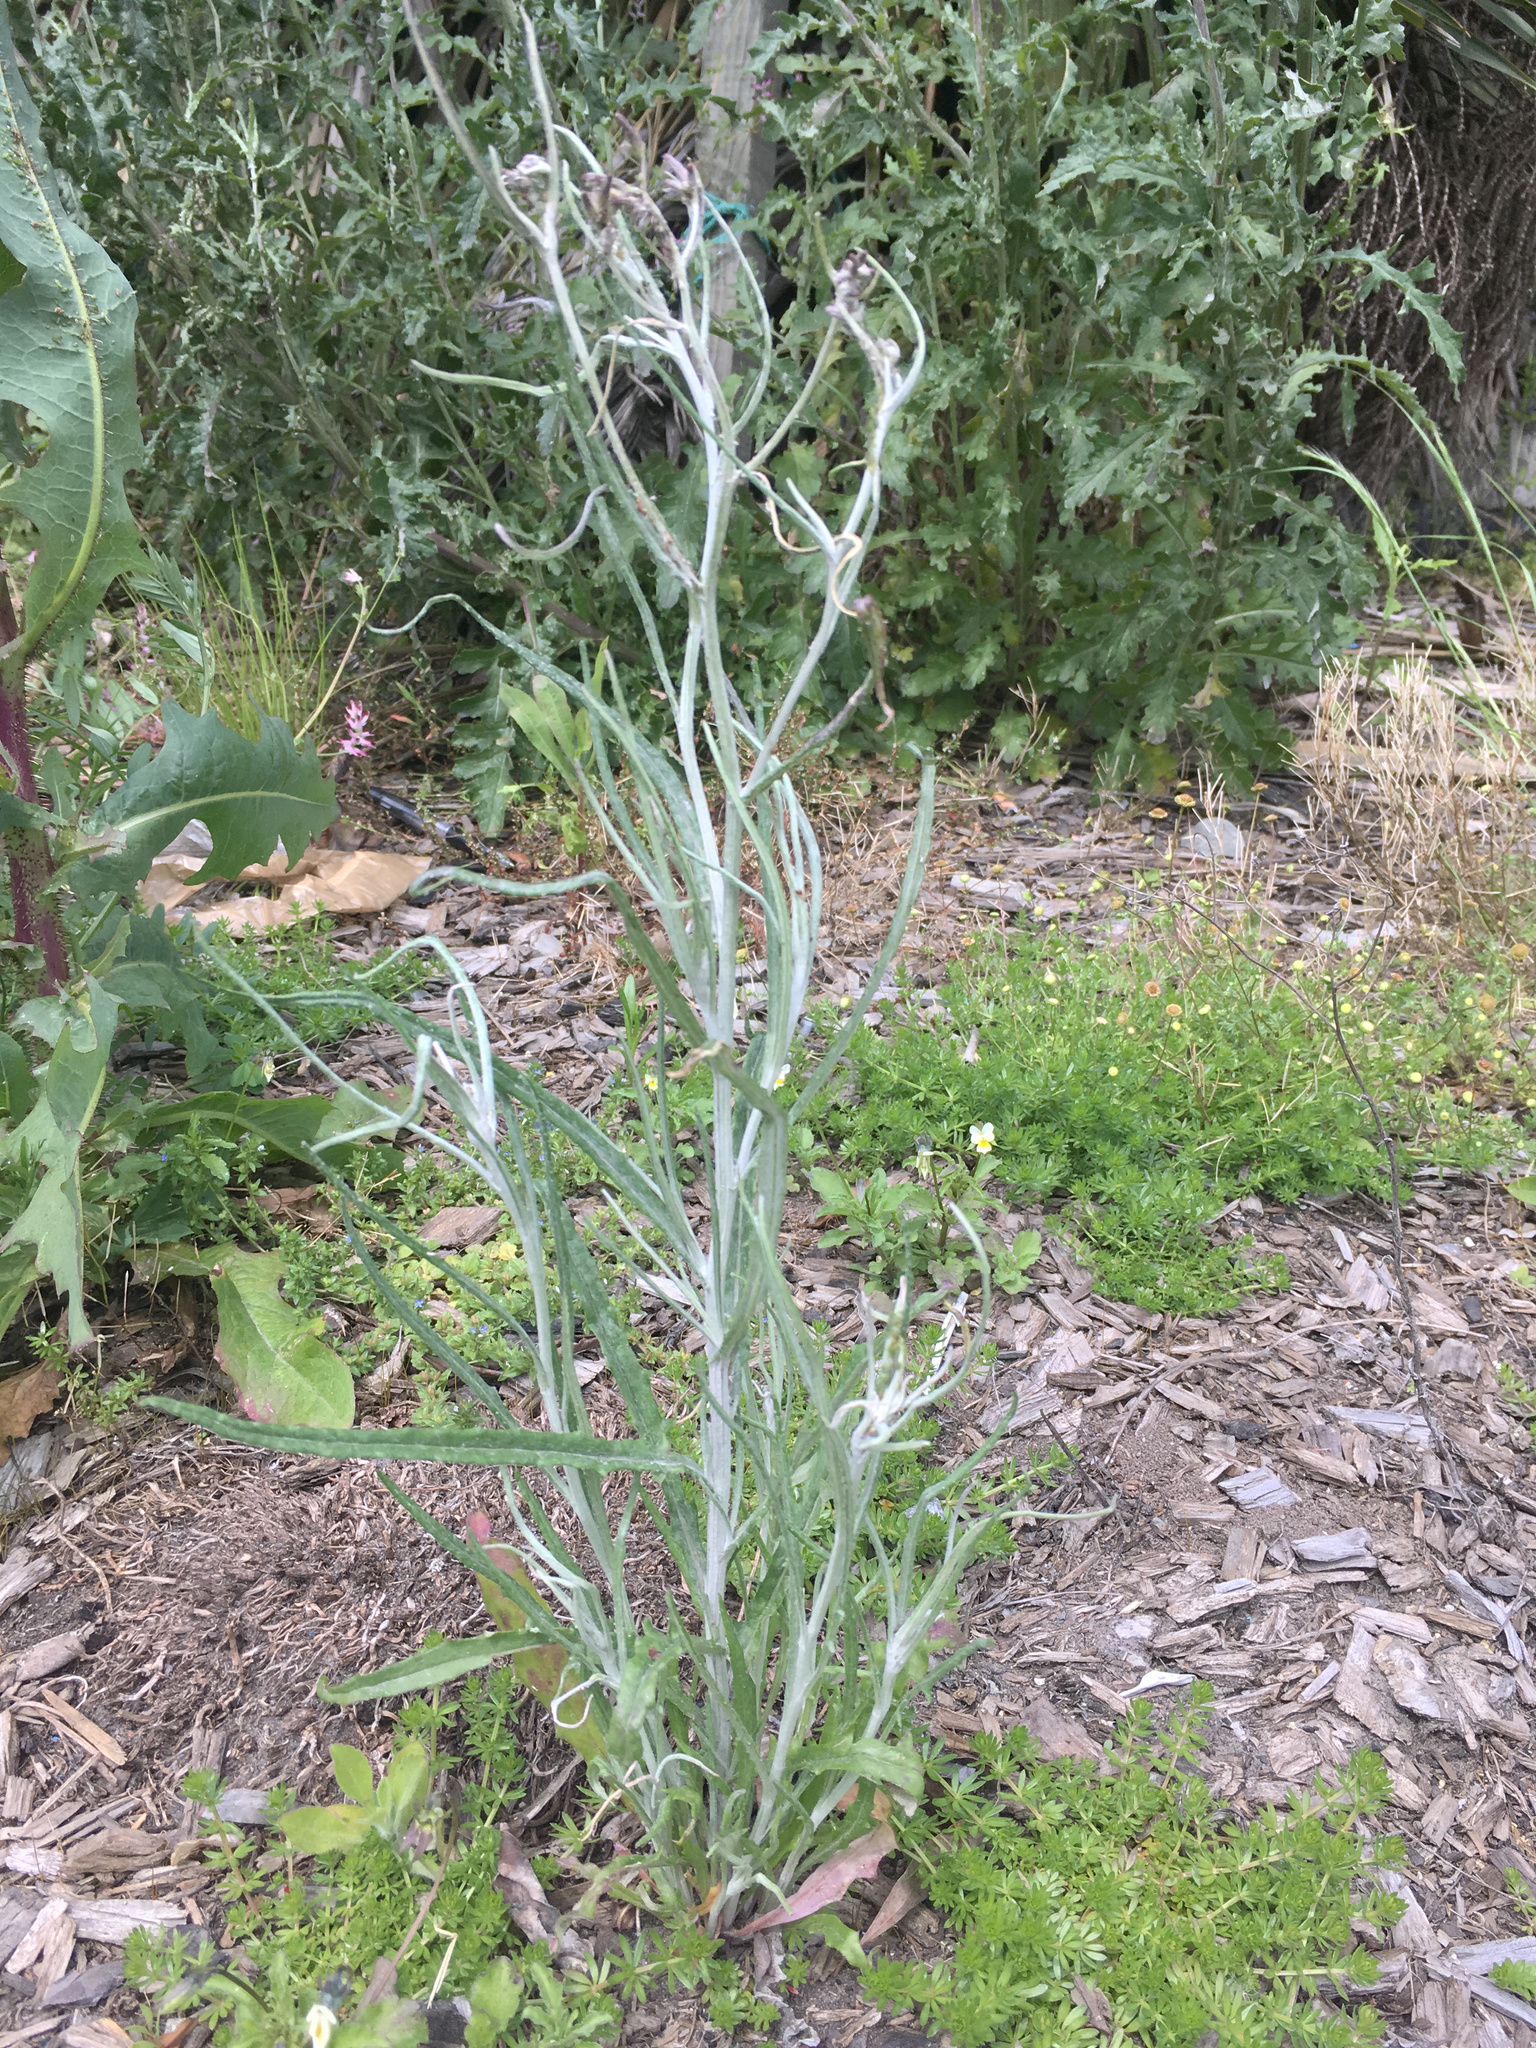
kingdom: Plantae
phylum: Tracheophyta
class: Magnoliopsida
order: Asterales
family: Asteraceae
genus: Senecio
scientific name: Senecio quadridentatus
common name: Cotton fireweed
